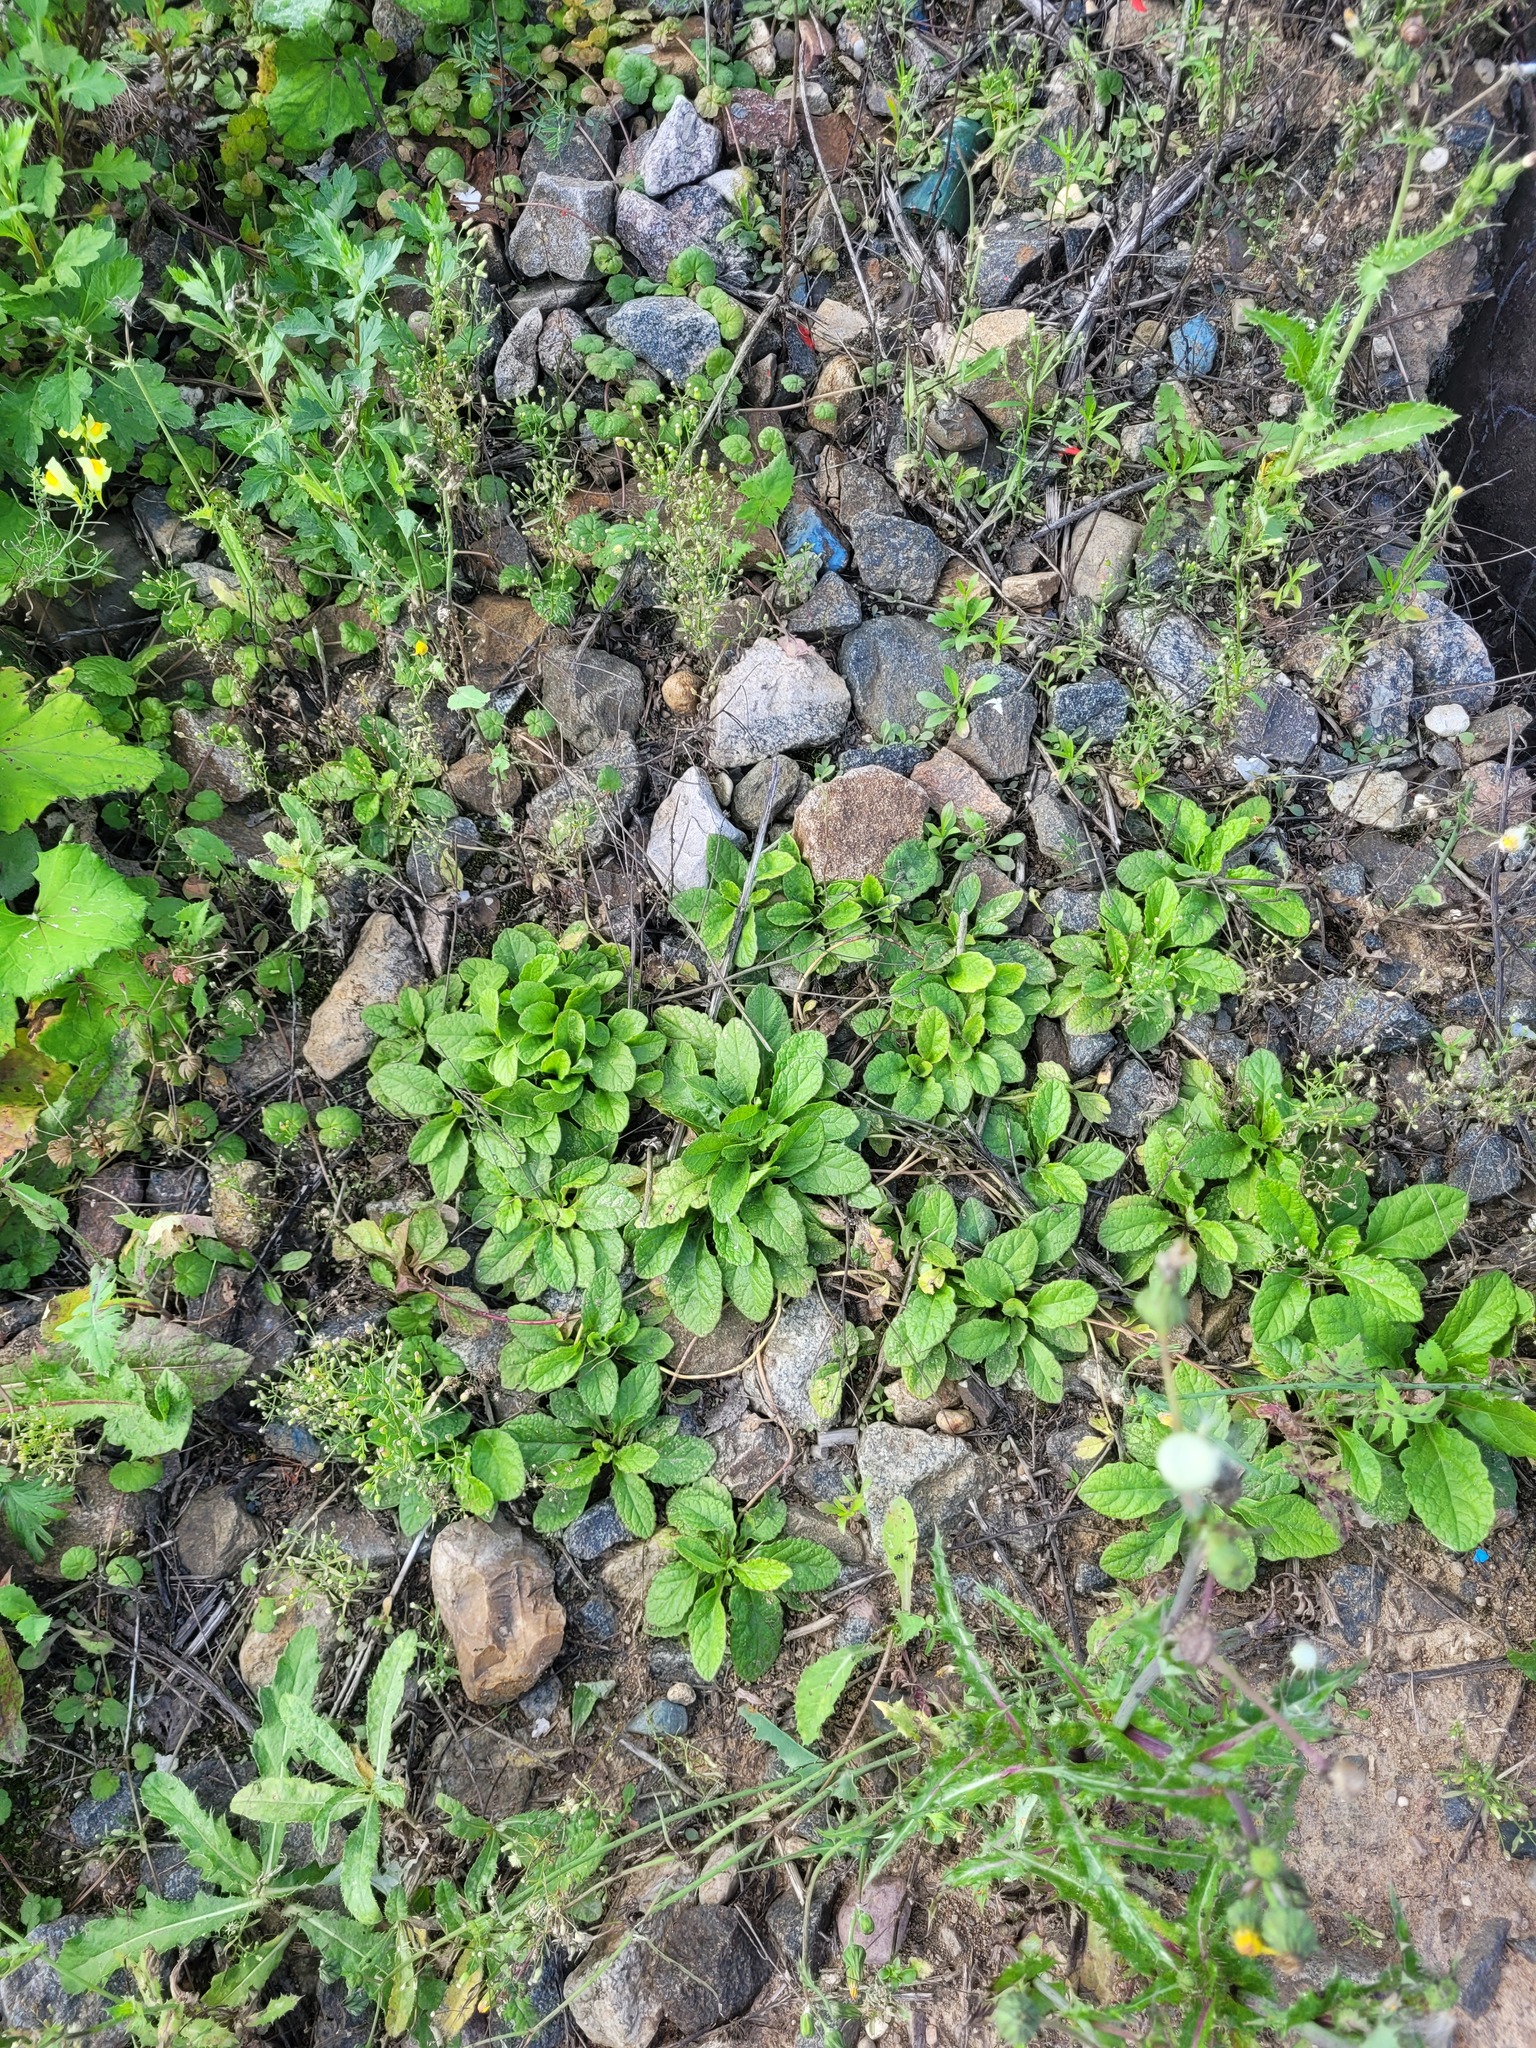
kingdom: Plantae
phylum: Tracheophyta
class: Magnoliopsida
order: Lamiales
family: Lamiaceae
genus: Ajuga
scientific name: Ajuga reptans
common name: Bugle
